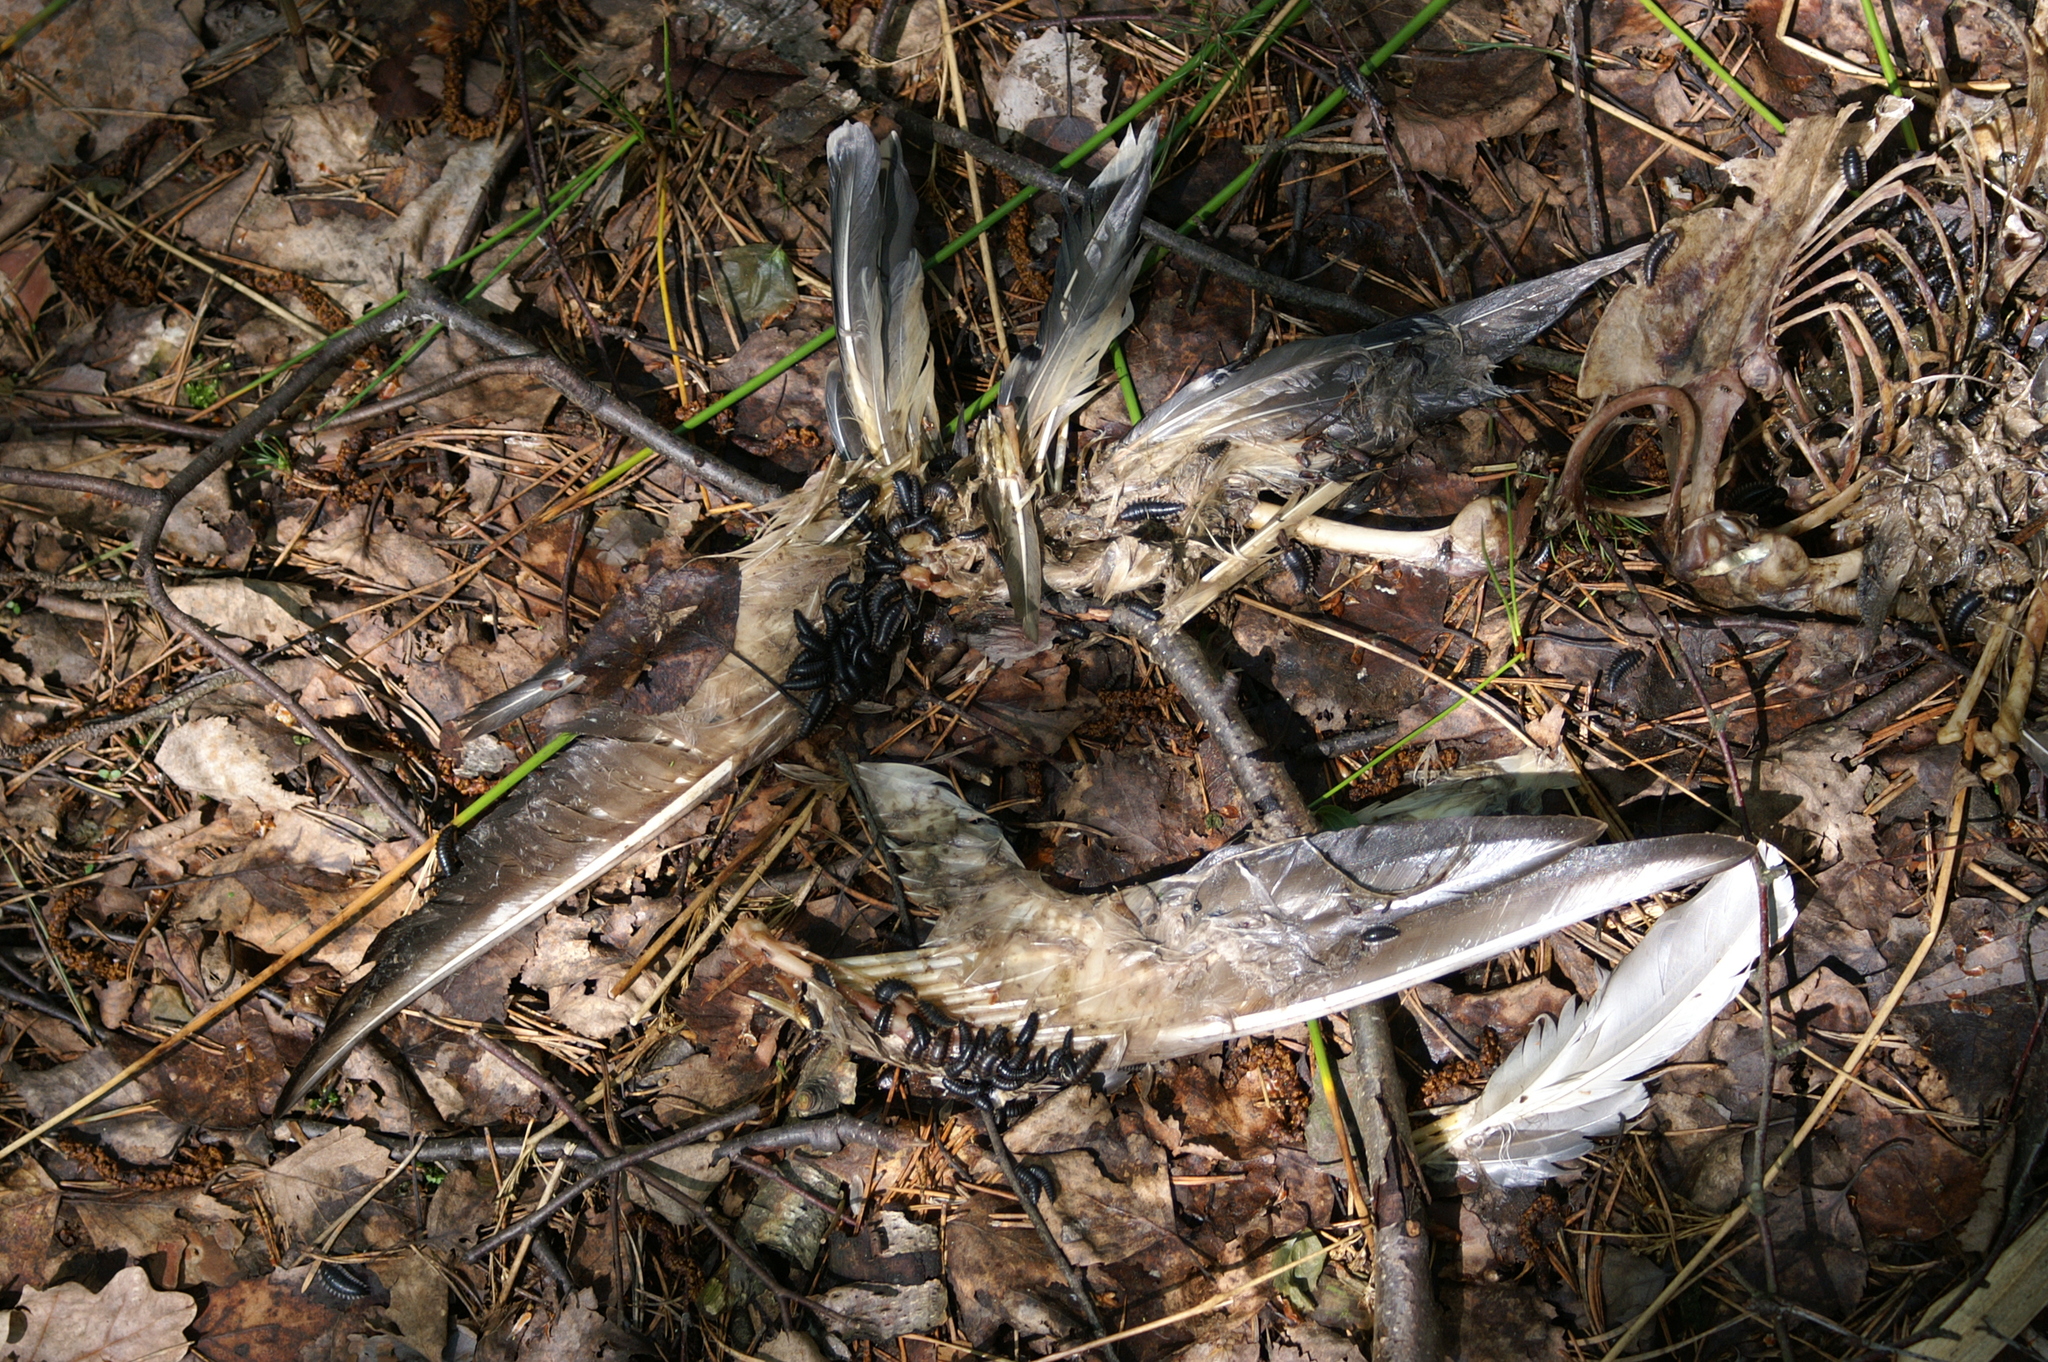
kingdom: Animalia
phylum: Arthropoda
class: Insecta
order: Coleoptera
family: Staphylinidae
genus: Oiceoptoma
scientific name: Oiceoptoma thoracicum
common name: Red-breasted carrion beetle
